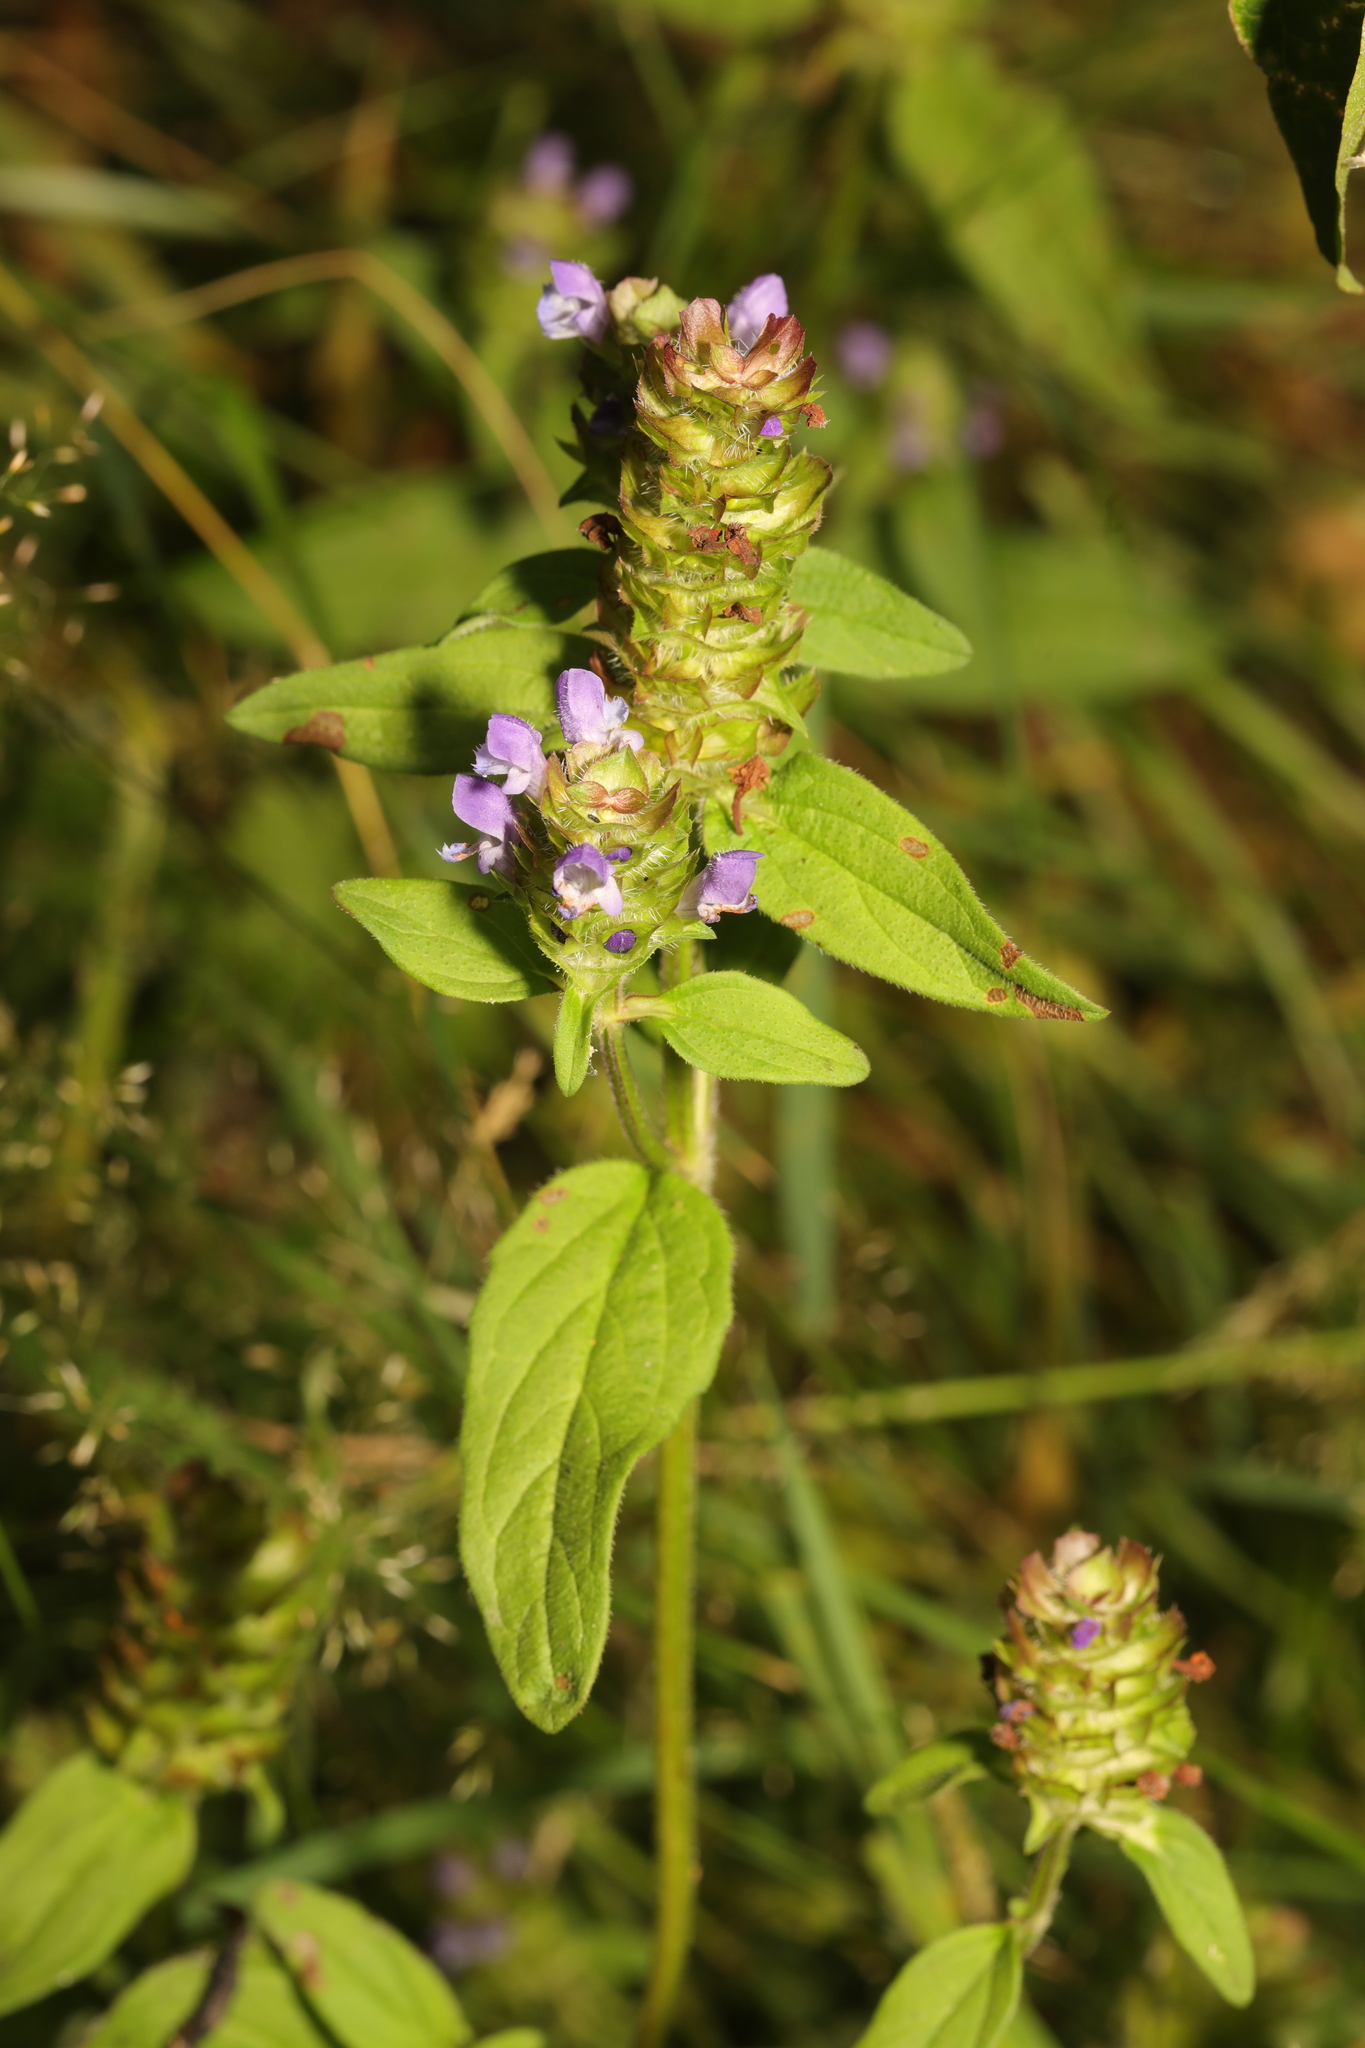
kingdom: Plantae
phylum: Tracheophyta
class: Magnoliopsida
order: Lamiales
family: Lamiaceae
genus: Prunella
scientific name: Prunella vulgaris
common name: Heal-all
